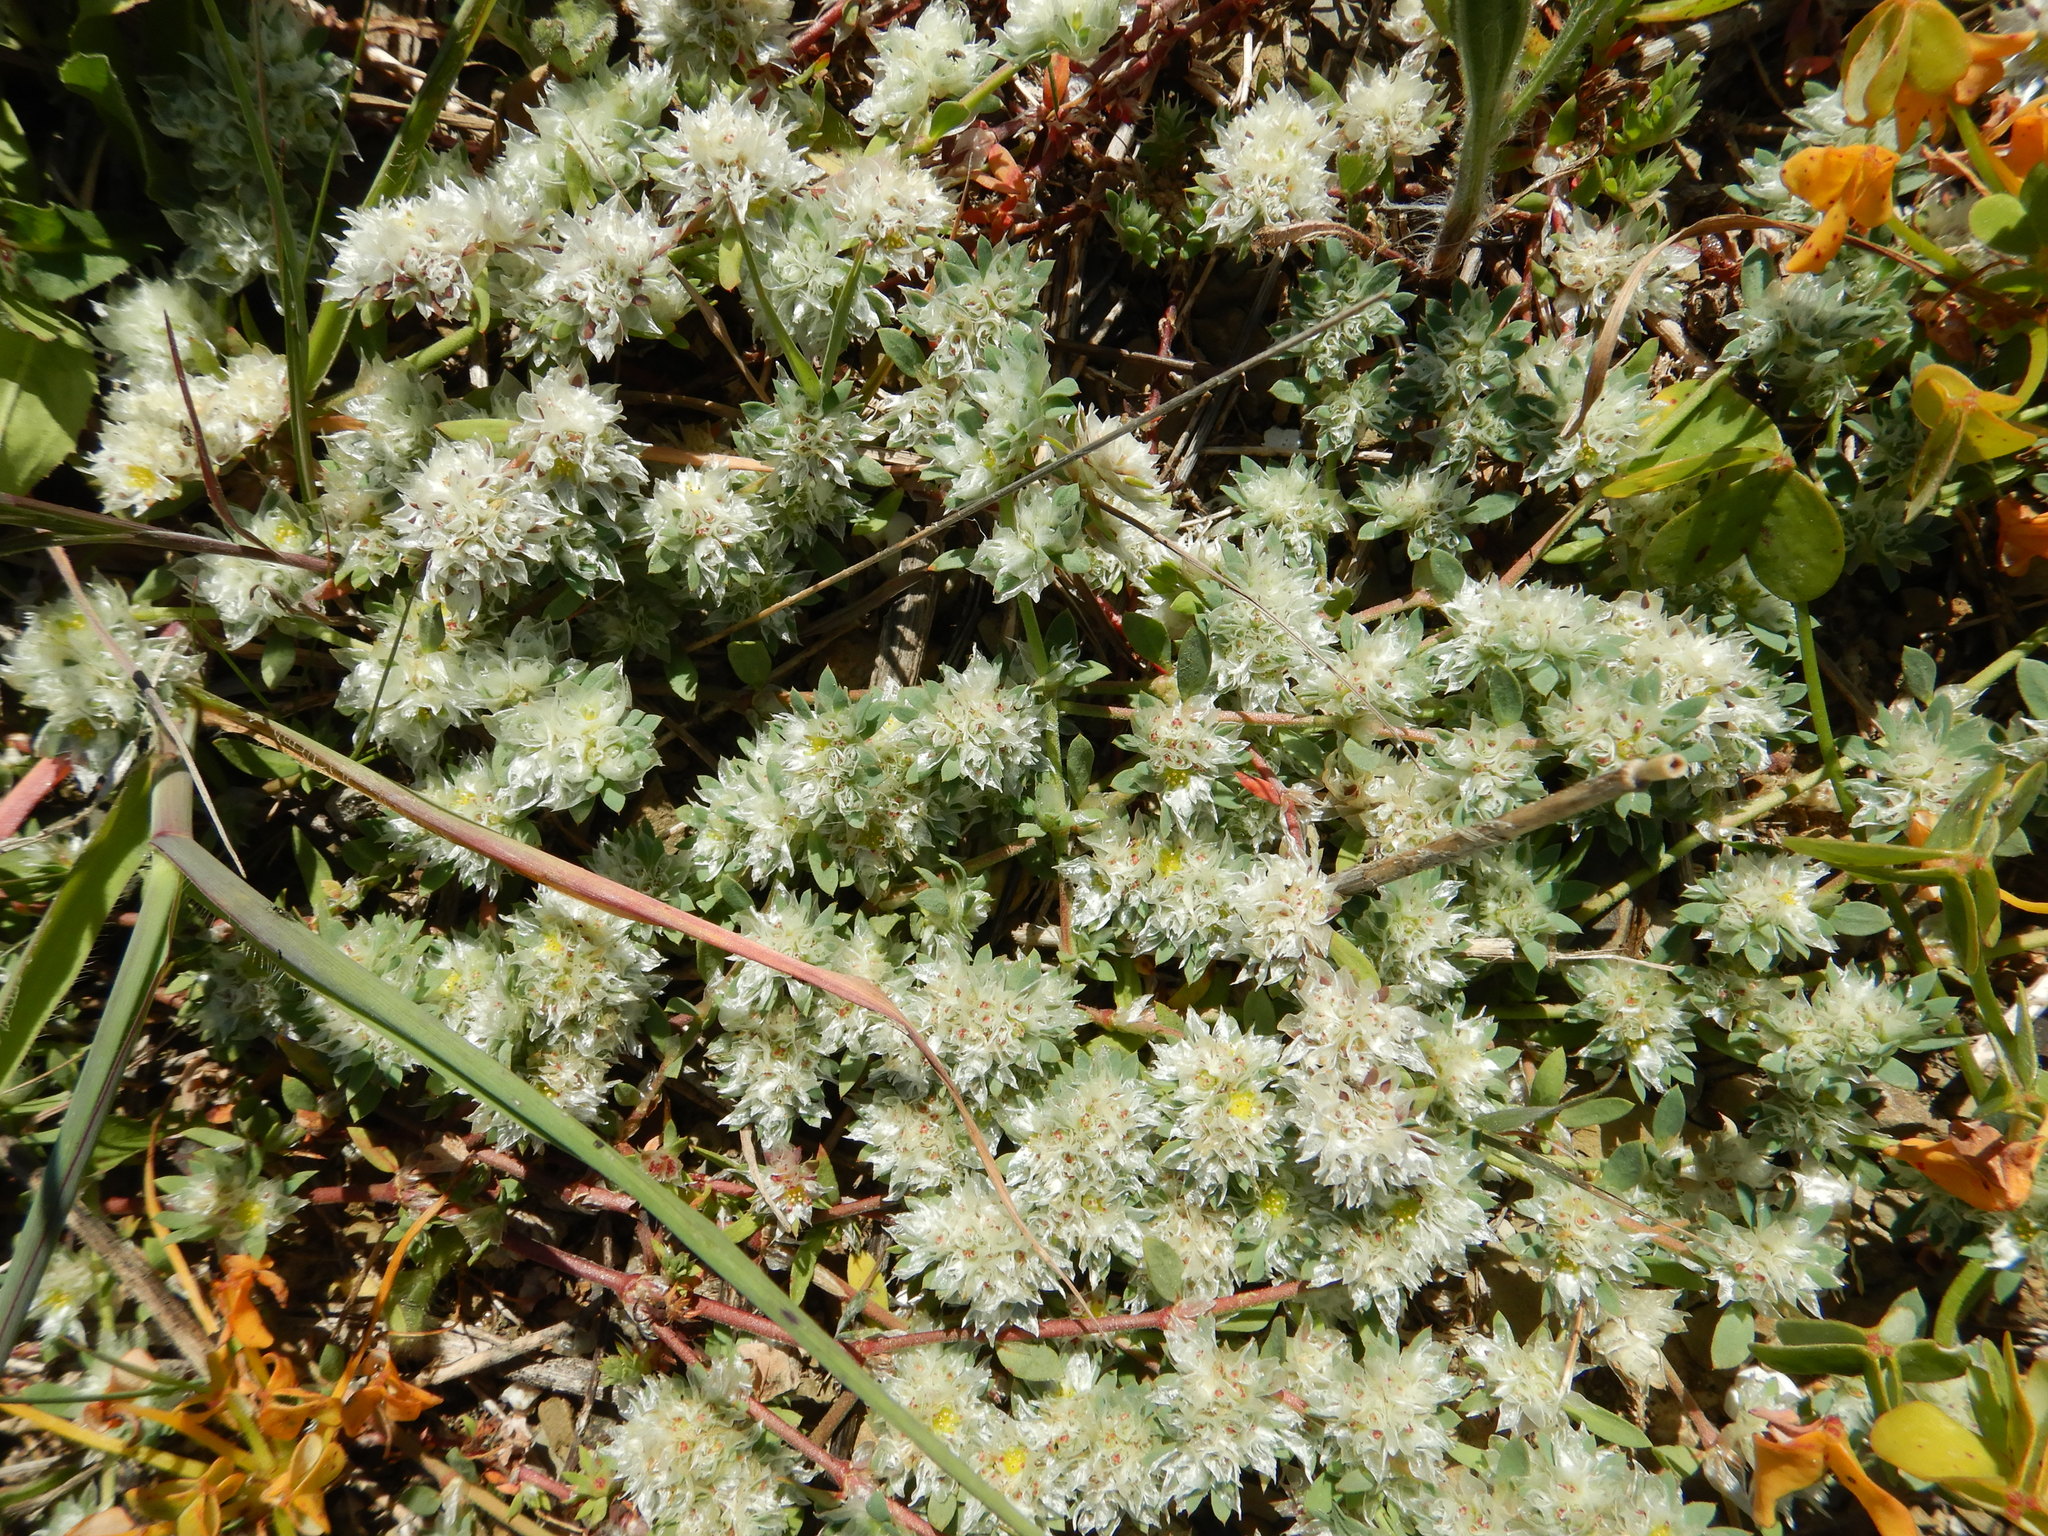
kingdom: Plantae
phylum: Tracheophyta
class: Magnoliopsida
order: Caryophyllales
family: Caryophyllaceae
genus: Paronychia
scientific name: Paronychia argentea
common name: Silver nailroot
